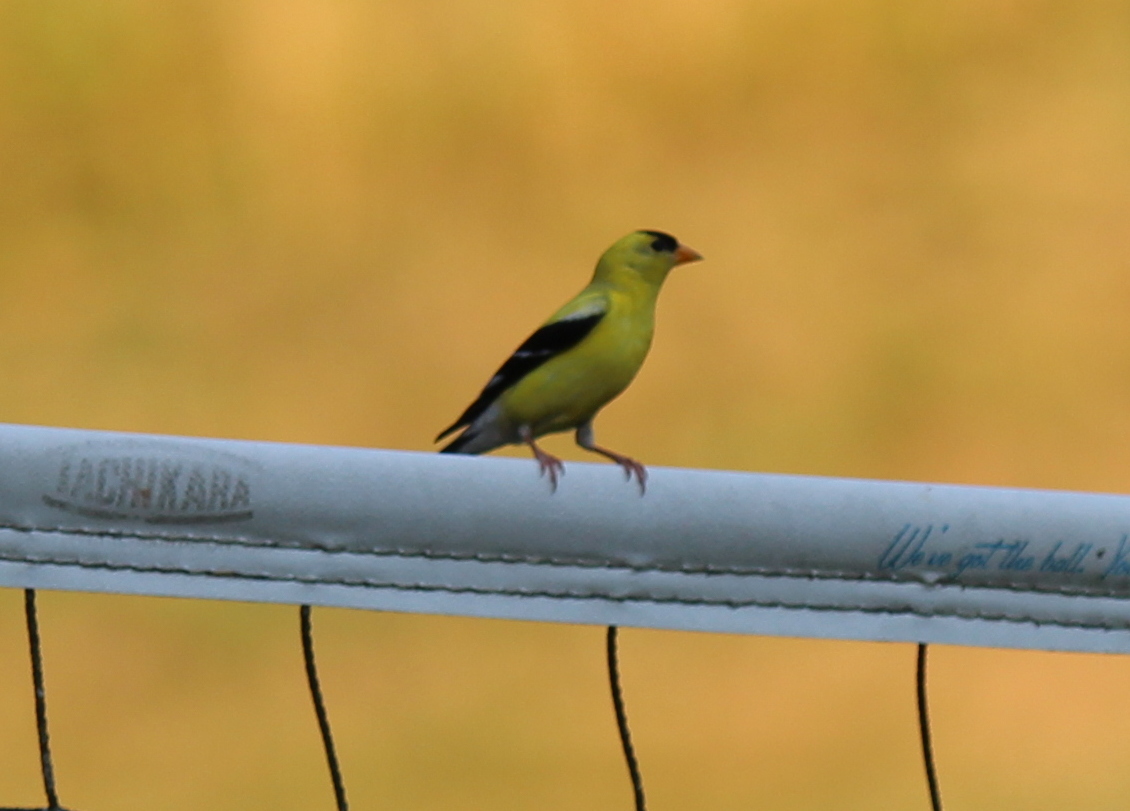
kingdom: Animalia
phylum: Chordata
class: Aves
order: Passeriformes
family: Fringillidae
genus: Spinus
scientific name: Spinus tristis
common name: American goldfinch
